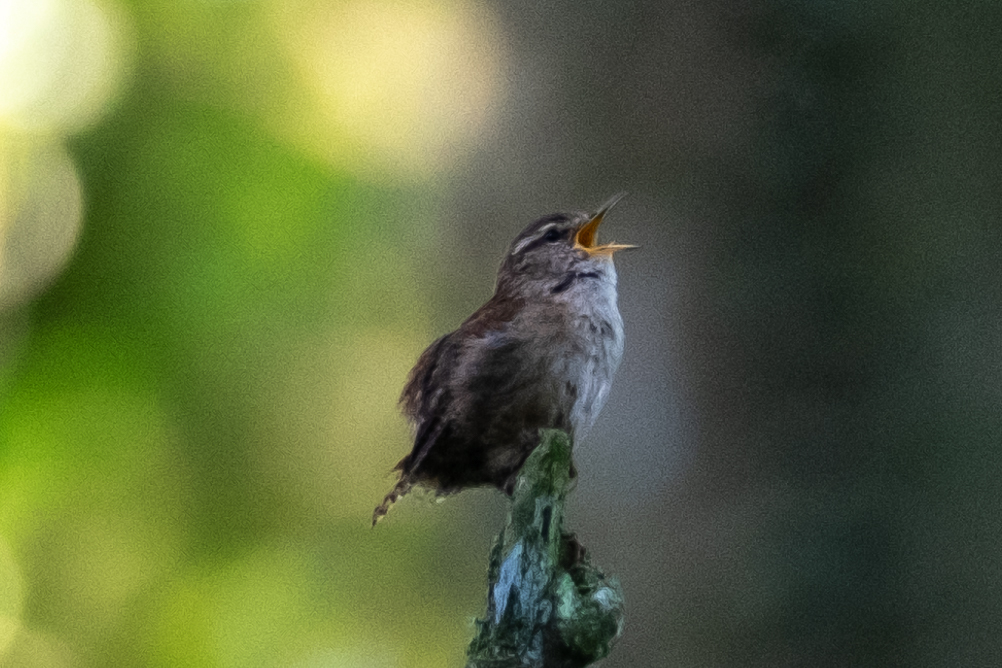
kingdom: Animalia
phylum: Chordata
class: Aves
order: Passeriformes
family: Troglodytidae
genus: Troglodytes
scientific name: Troglodytes troglodytes
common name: Eurasian wren
